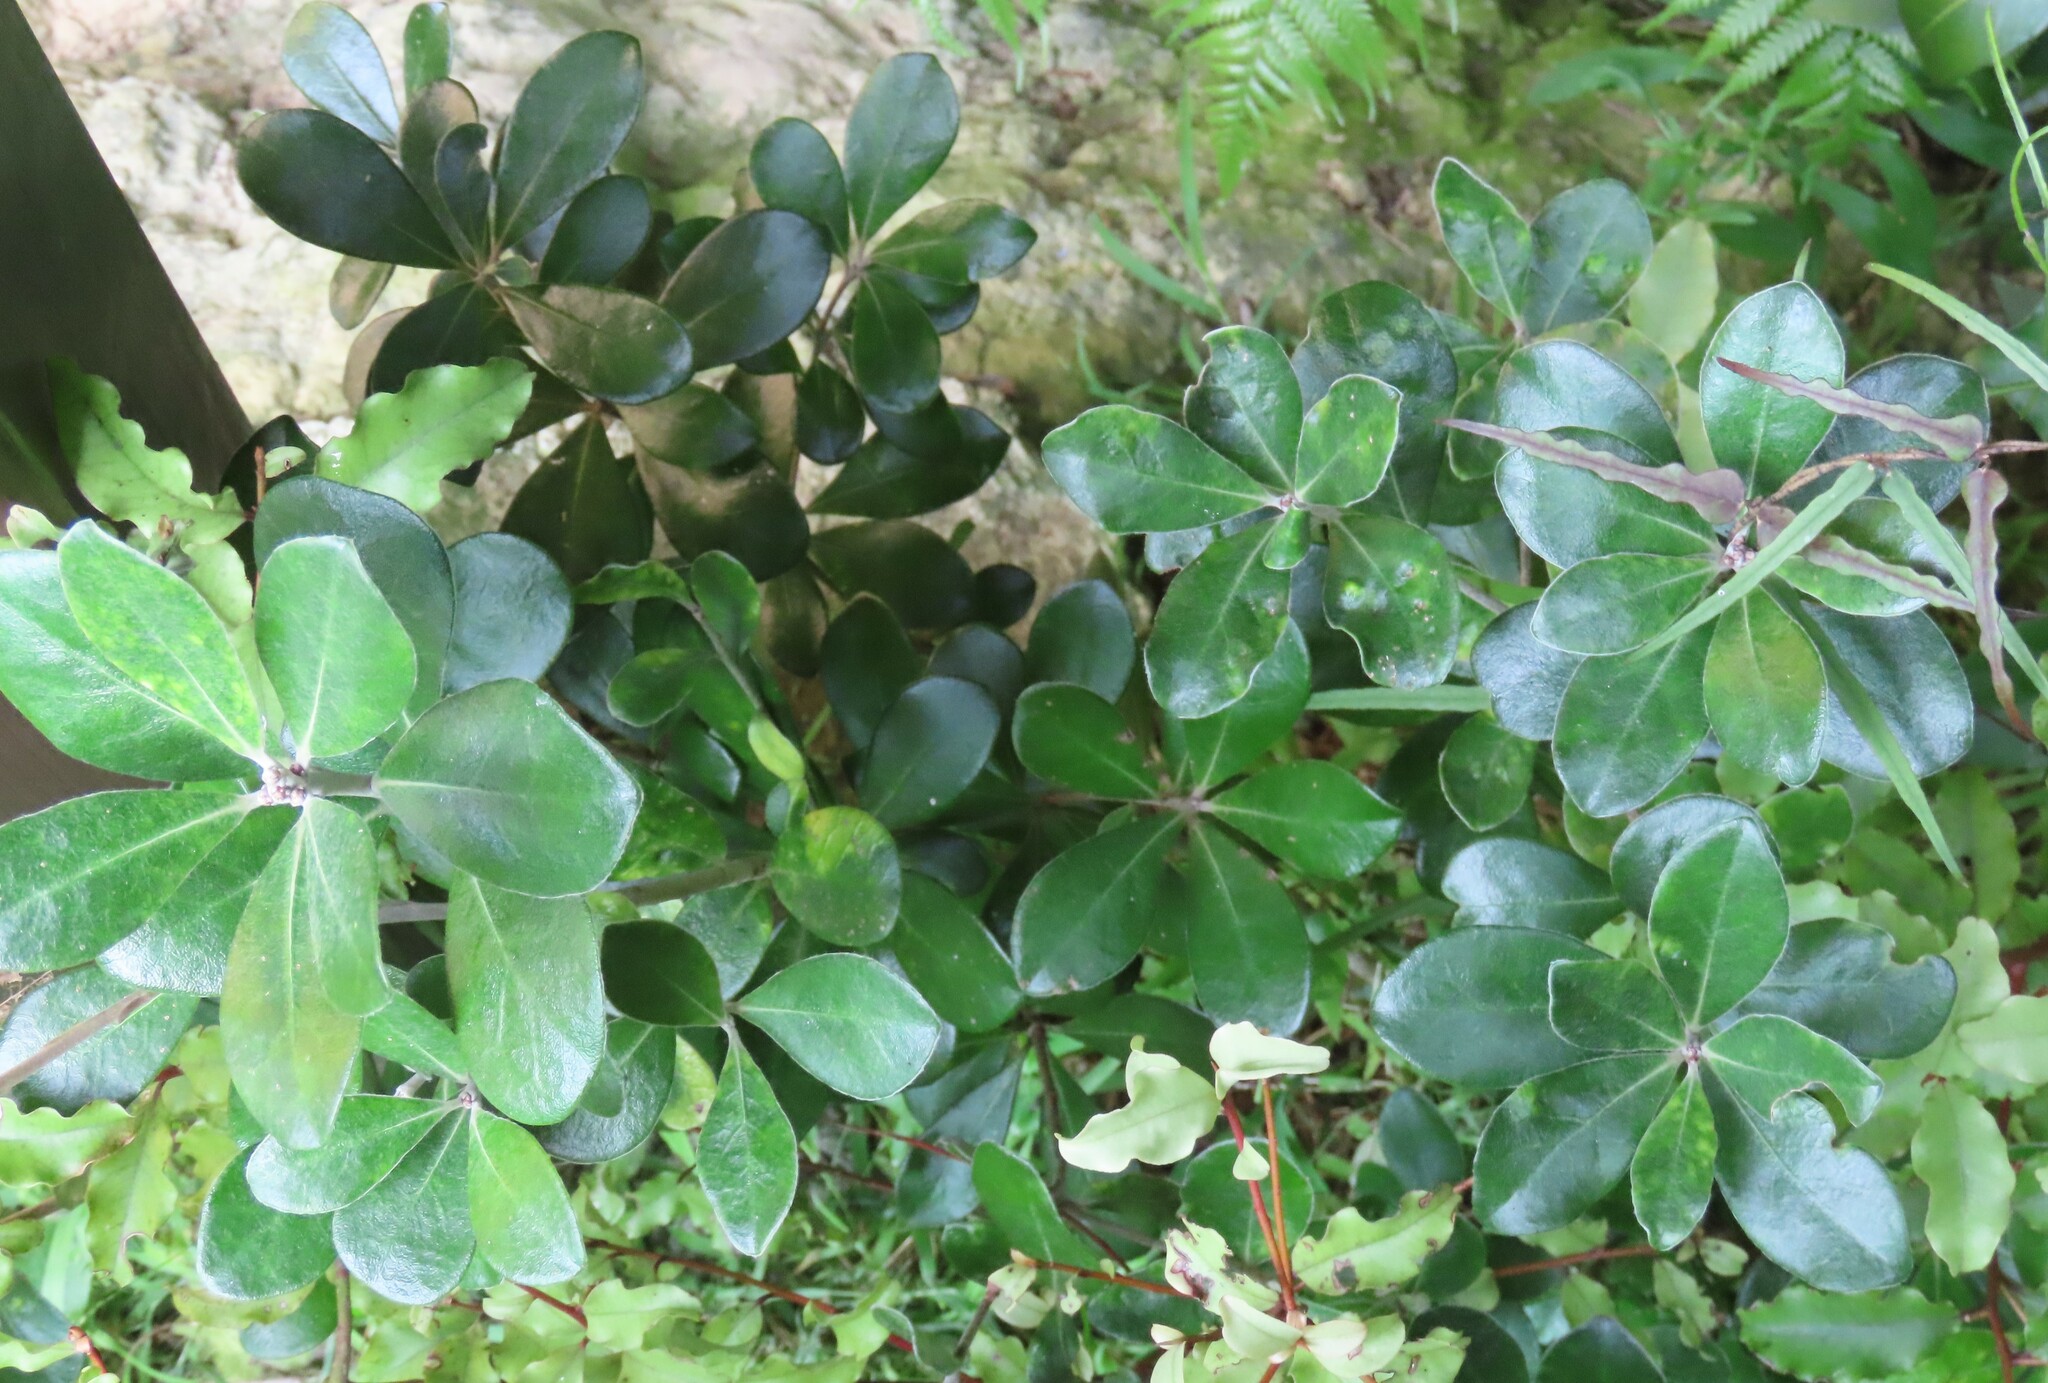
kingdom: Plantae
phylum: Tracheophyta
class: Magnoliopsida
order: Apiales
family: Pittosporaceae
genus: Pittosporum
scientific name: Pittosporum crassifolium
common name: Karo
